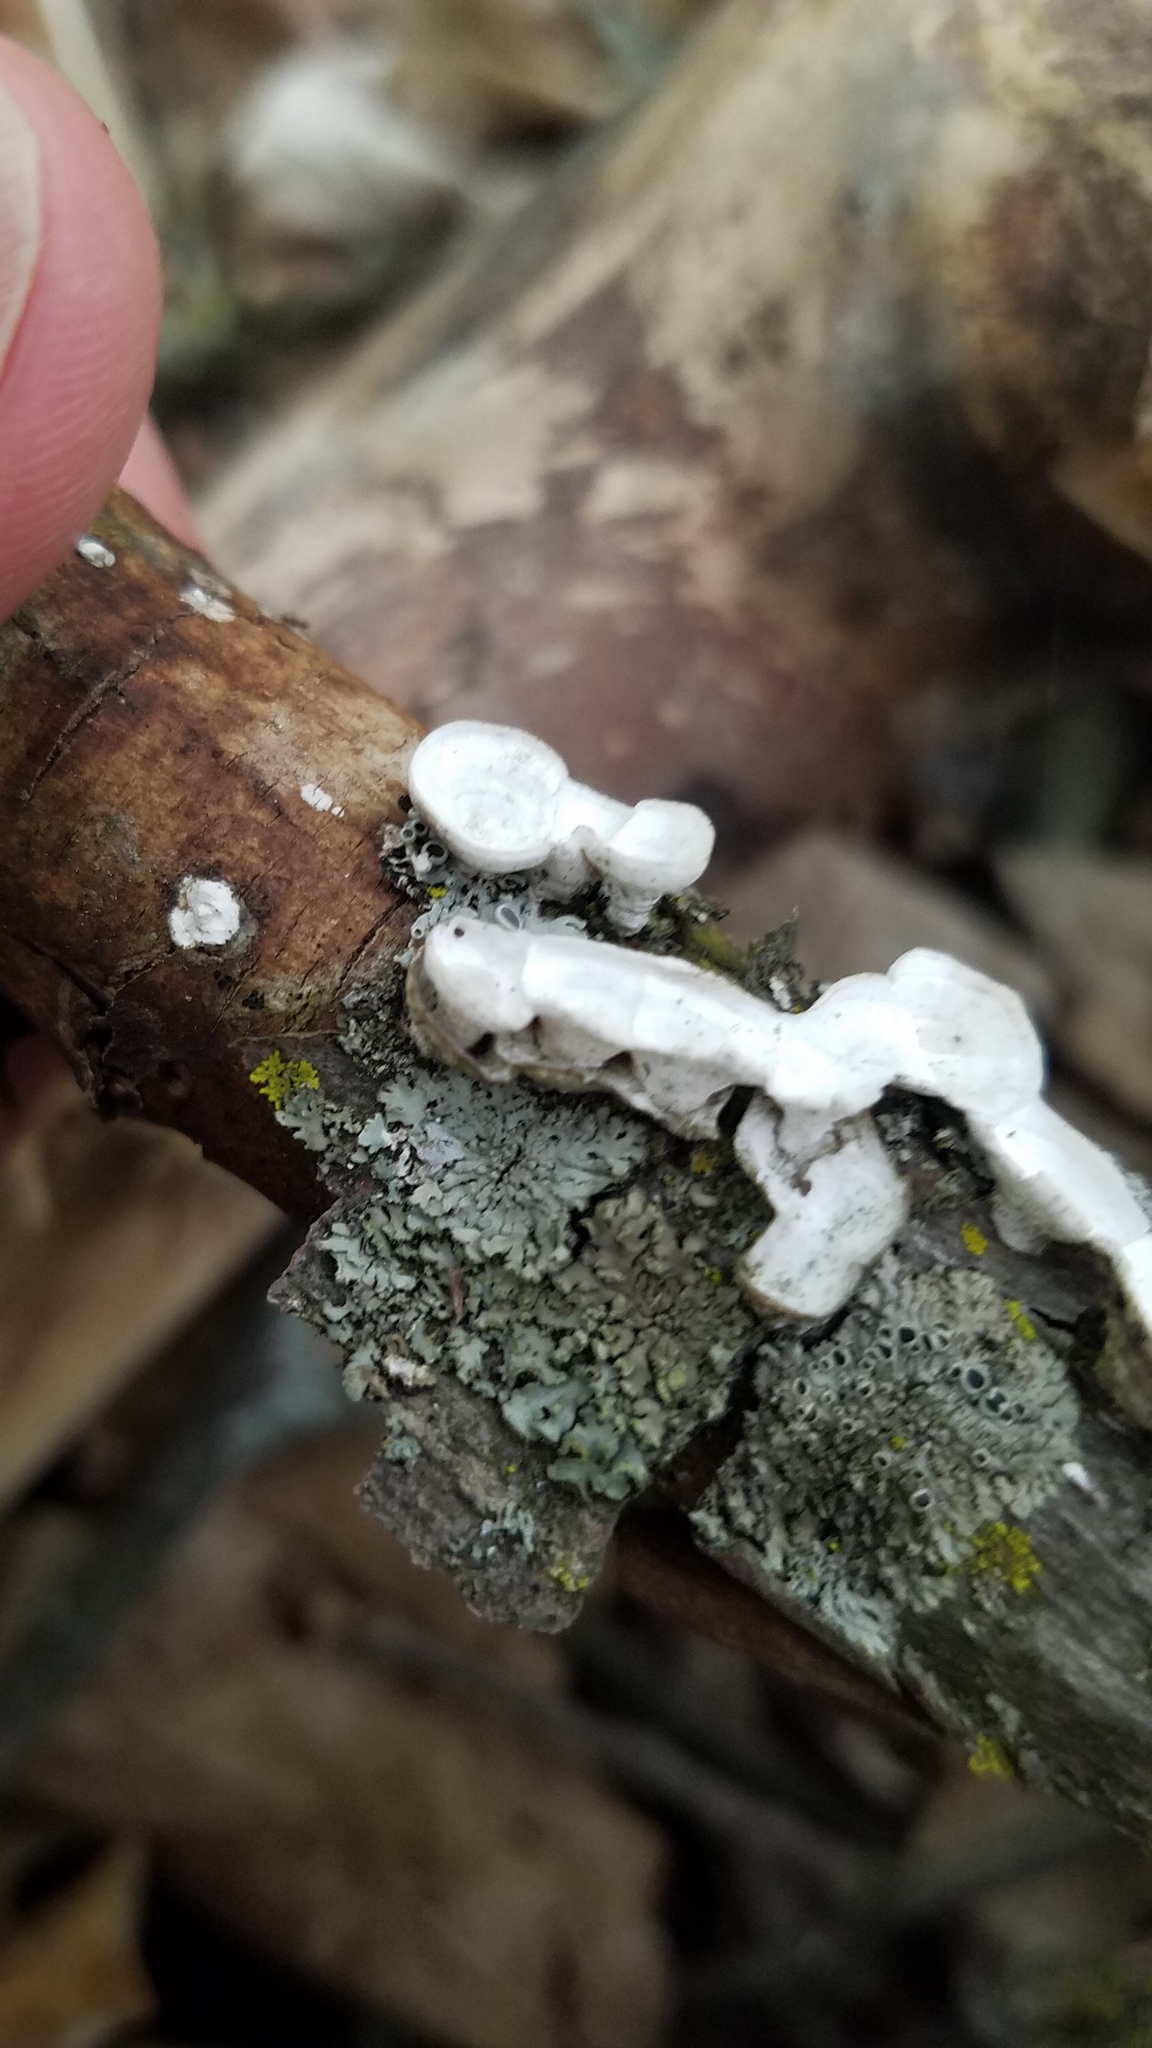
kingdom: Fungi
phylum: Basidiomycota
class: Agaricomycetes
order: Polyporales
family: Polyporaceae
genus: Poronidulus
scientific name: Poronidulus conchifer
